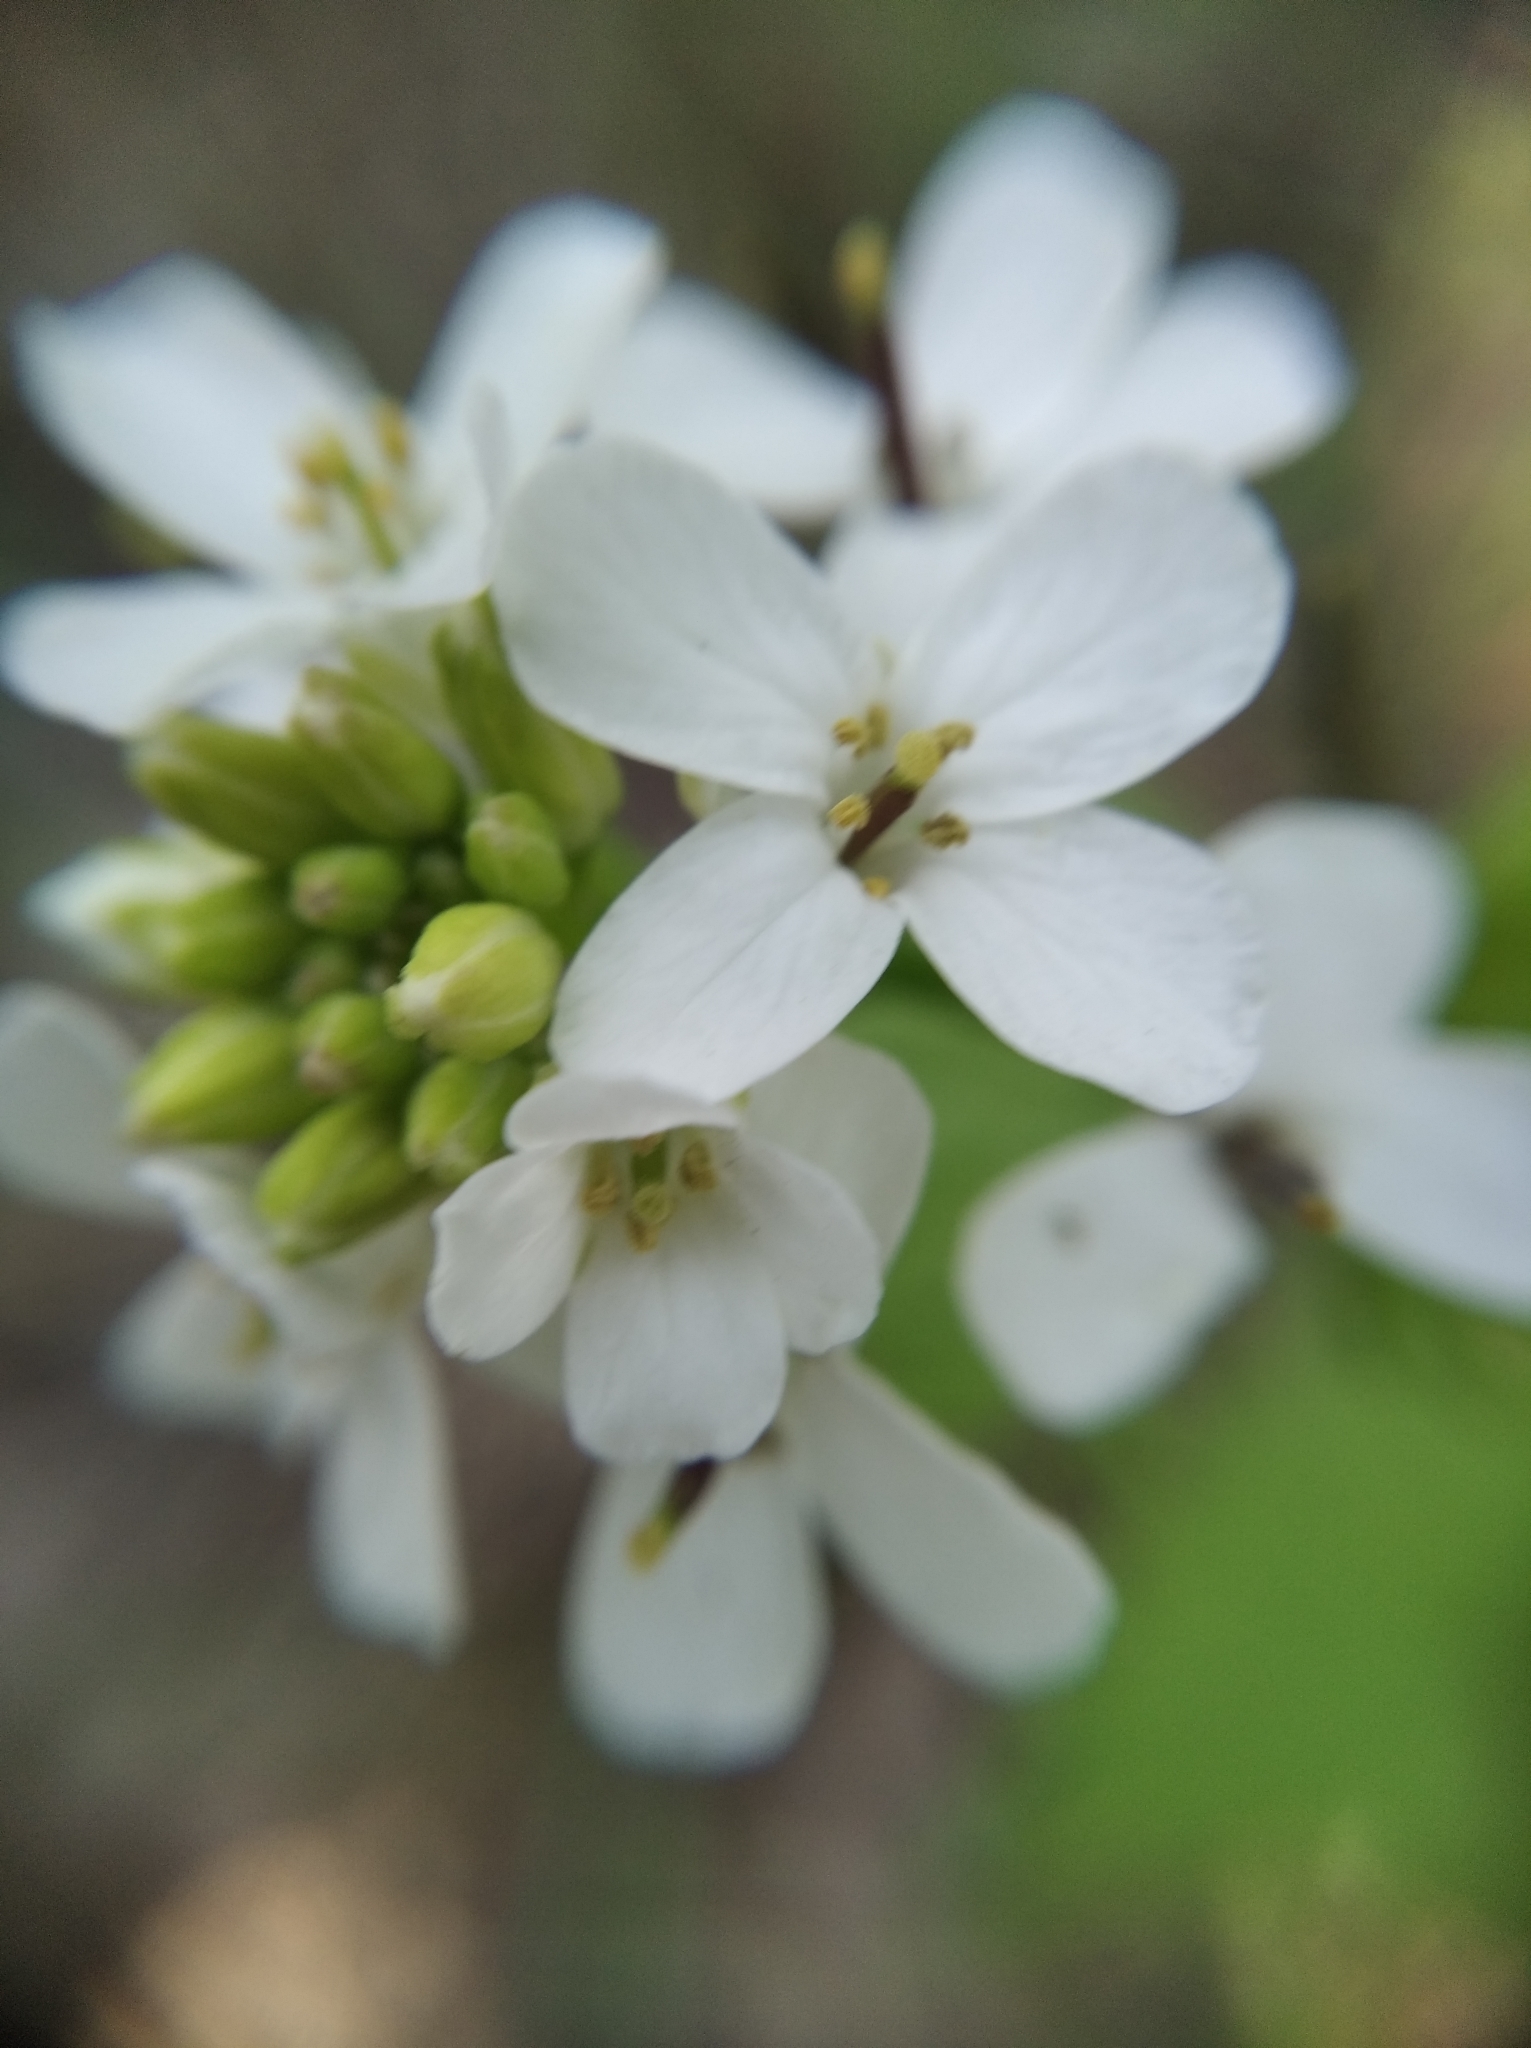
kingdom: Plantae
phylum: Tracheophyta
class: Magnoliopsida
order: Brassicales
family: Brassicaceae
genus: Alliaria
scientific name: Alliaria petiolata
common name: Garlic mustard
